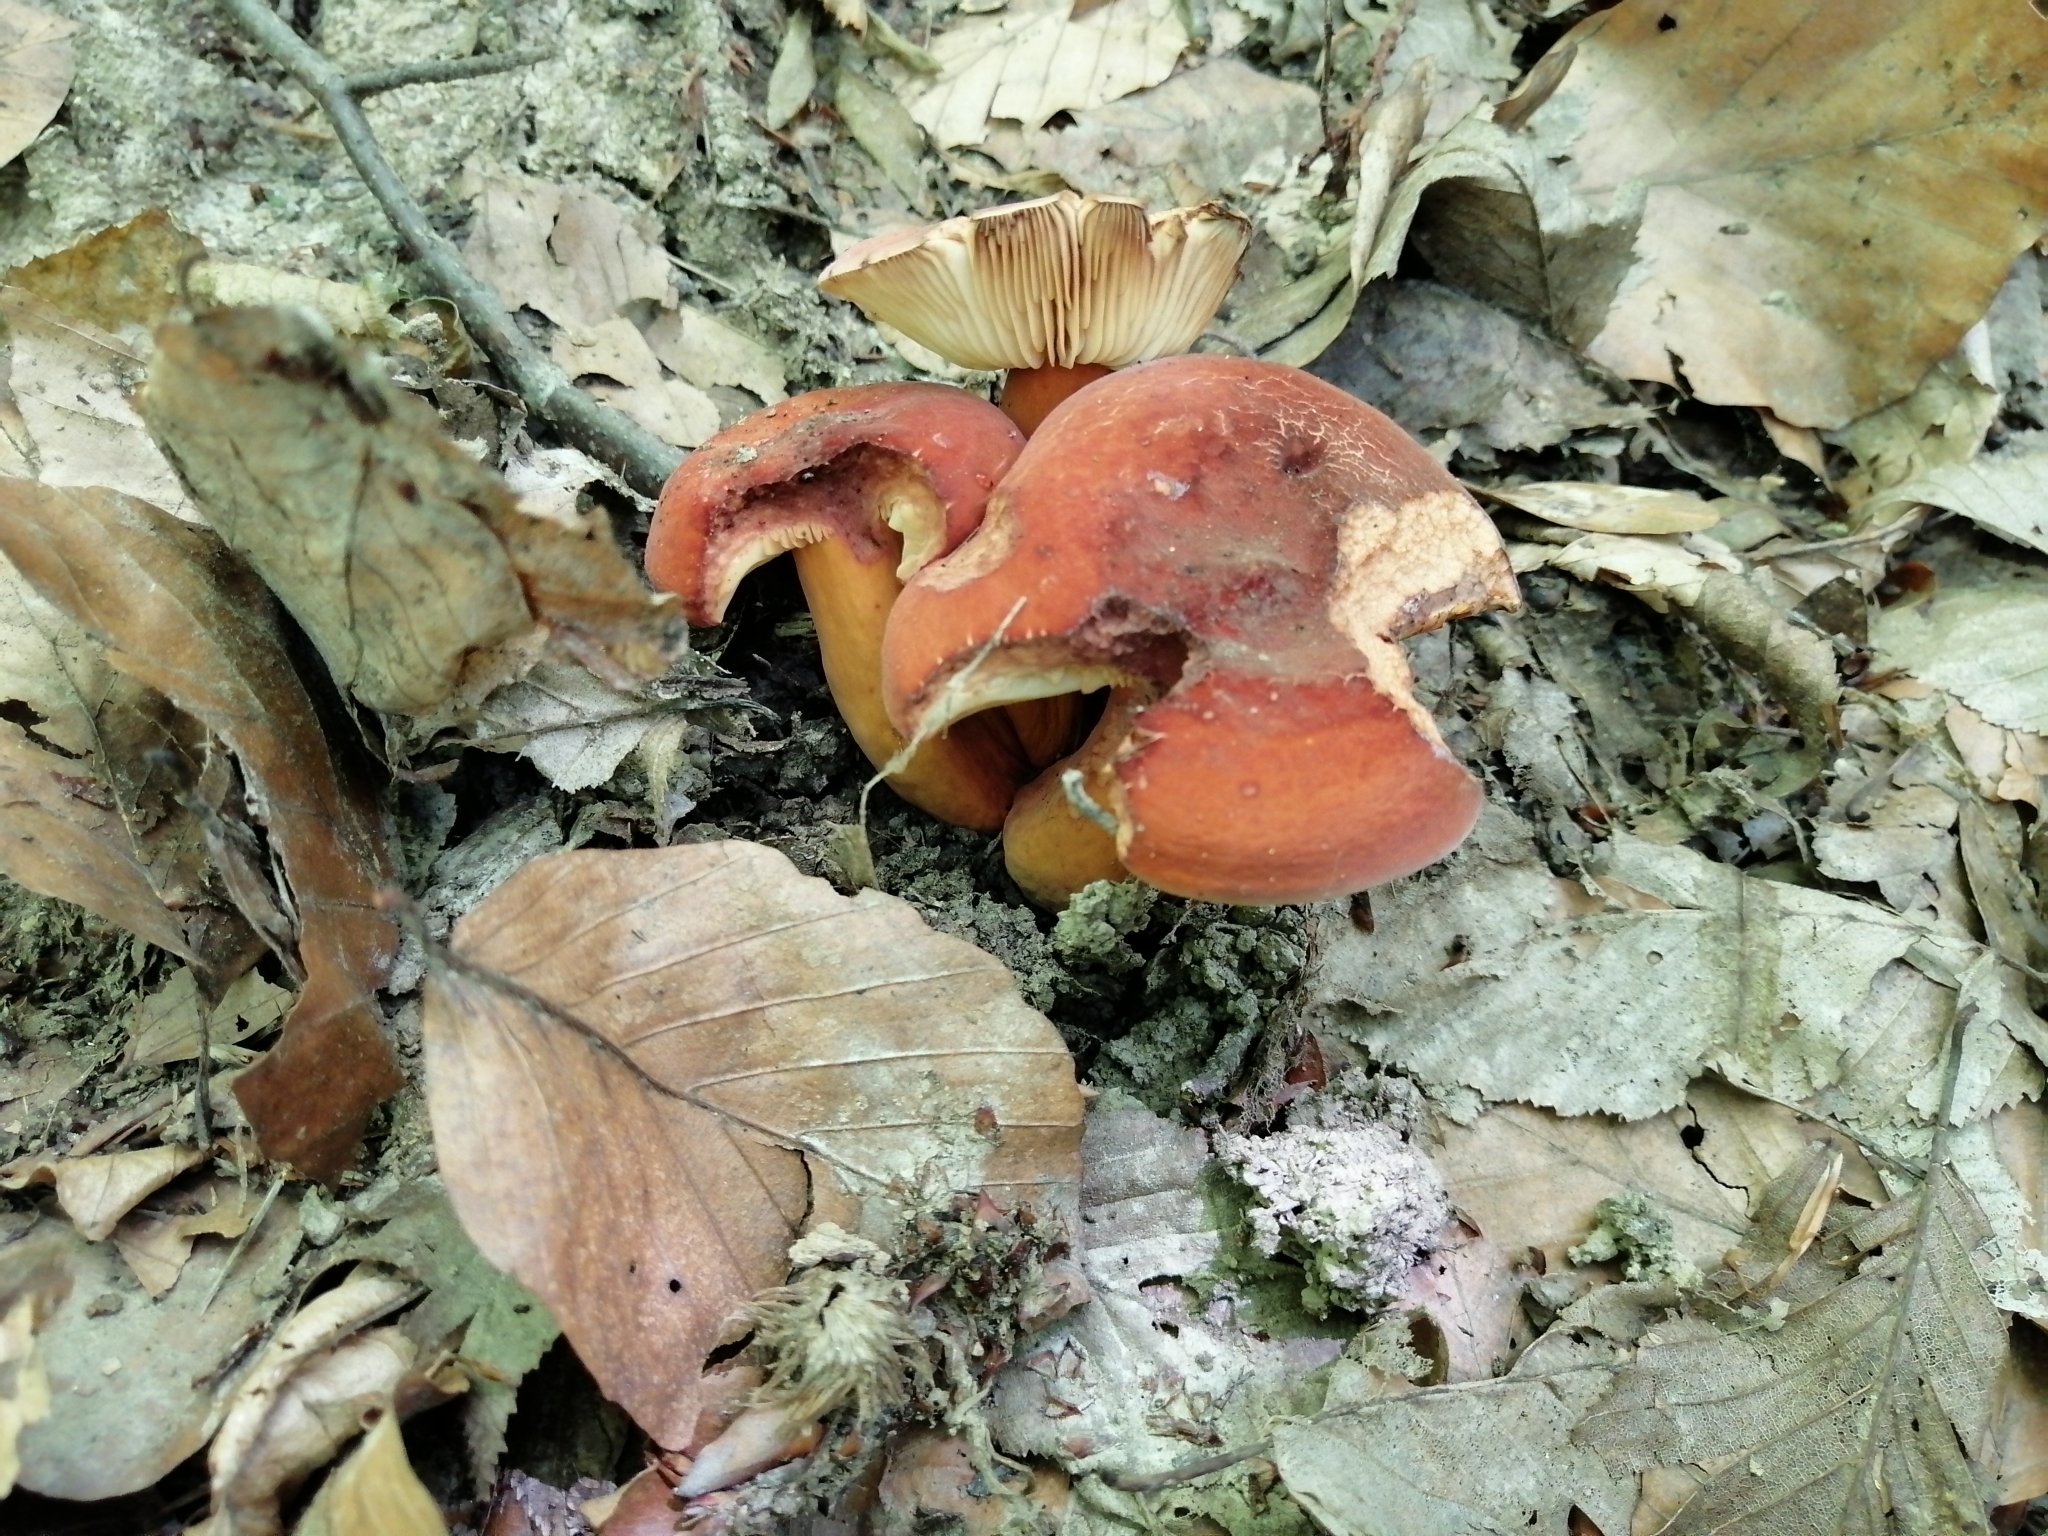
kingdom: Fungi
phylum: Basidiomycota
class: Agaricomycetes
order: Russulales
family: Russulaceae
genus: Lactifluus
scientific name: Lactifluus volemus
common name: Fishy milkcap
